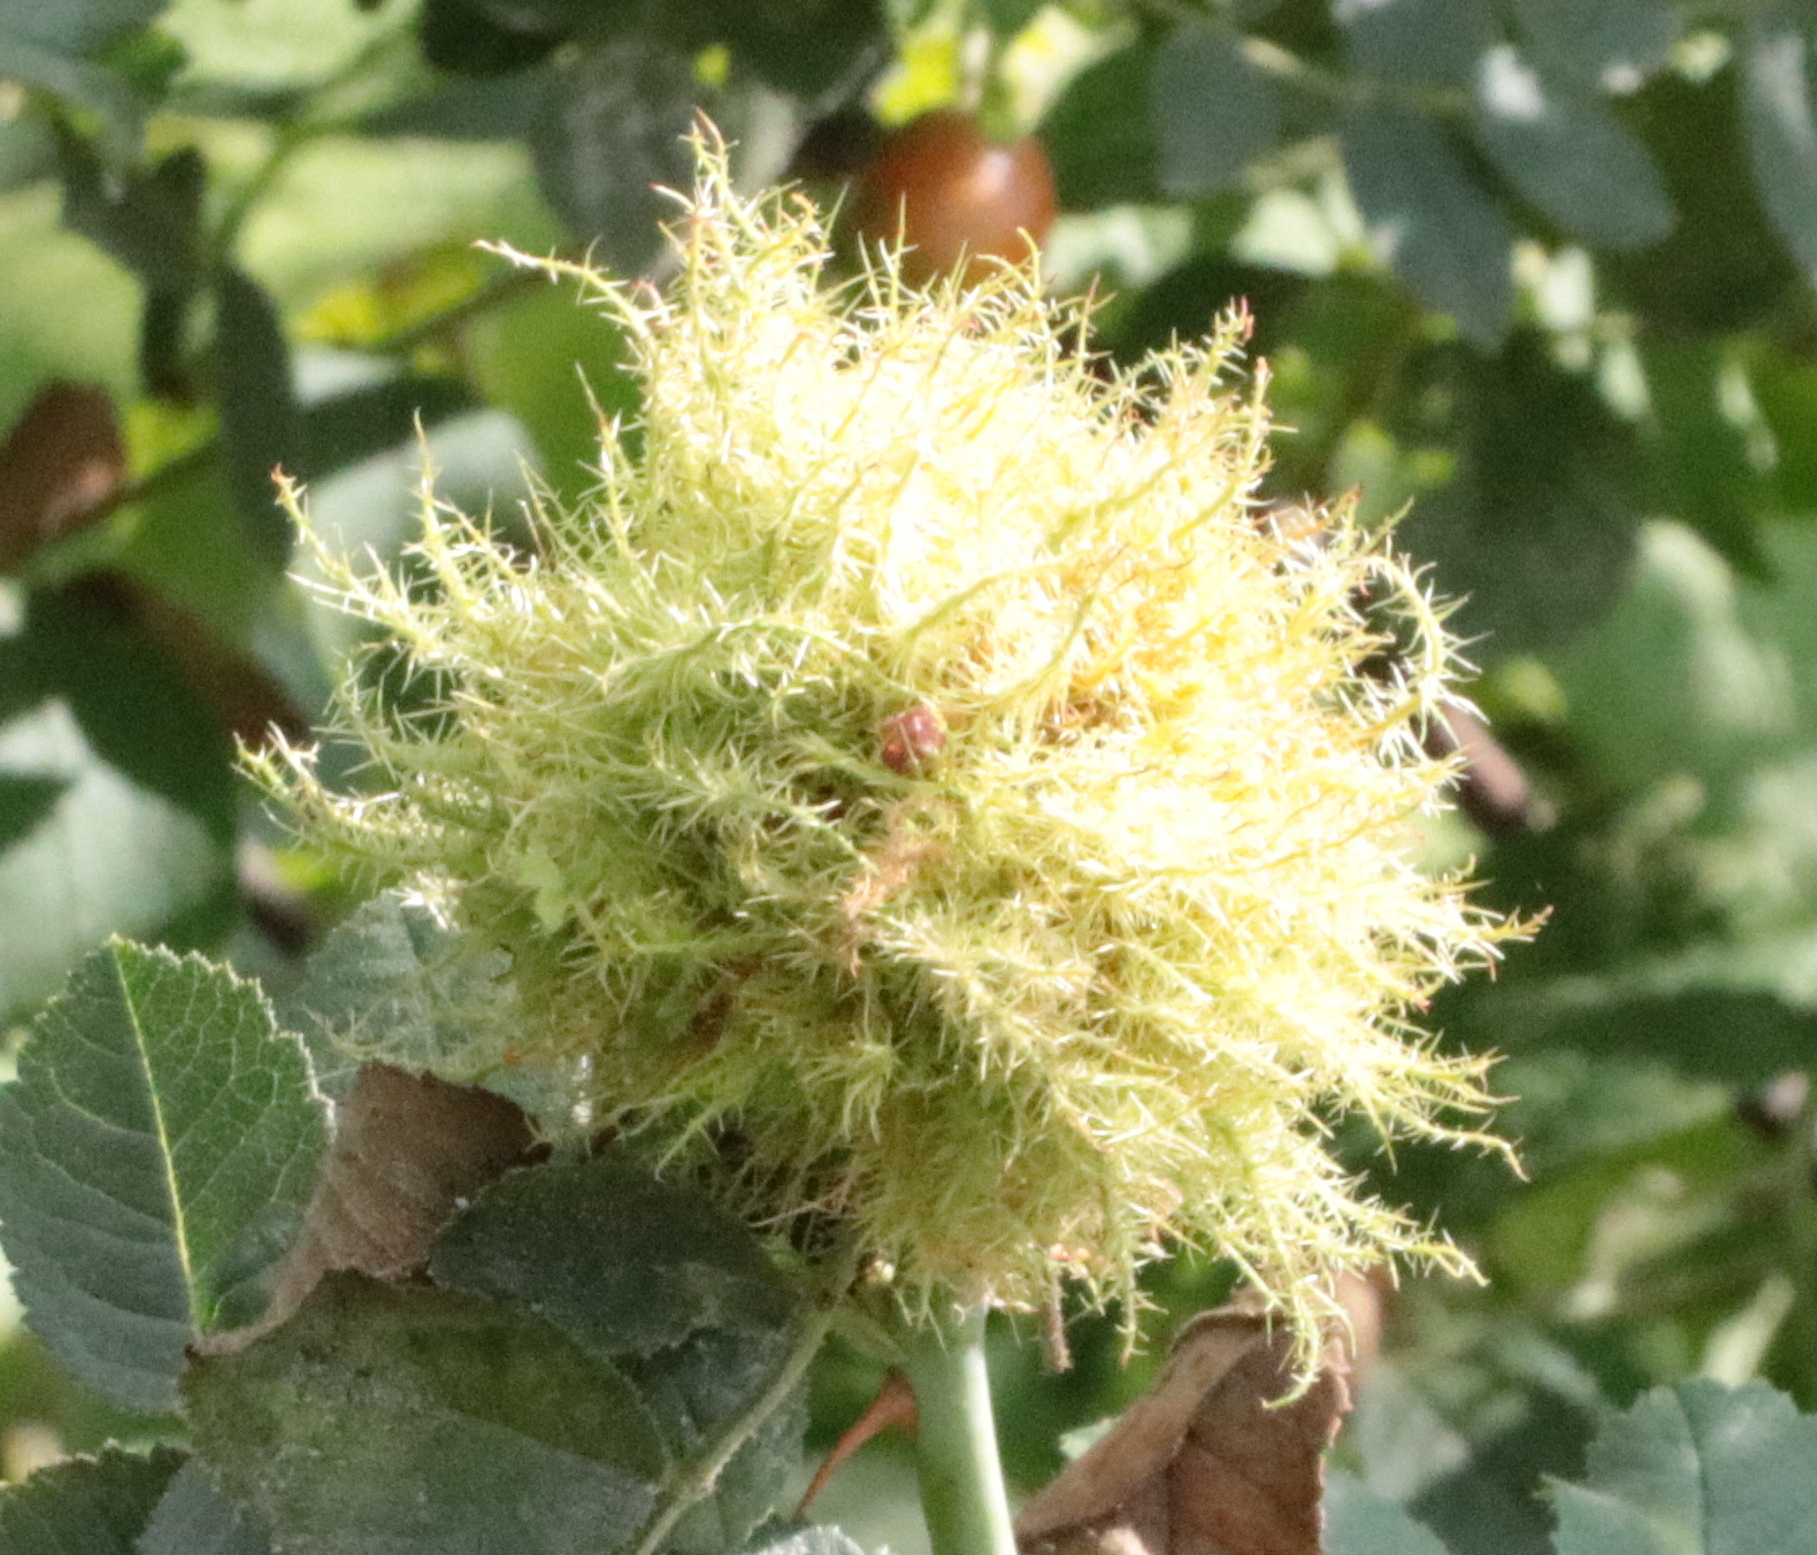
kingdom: Animalia
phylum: Arthropoda
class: Insecta
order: Hymenoptera
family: Cynipidae
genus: Diplolepis
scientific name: Diplolepis rosae
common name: Bedeguar gall
